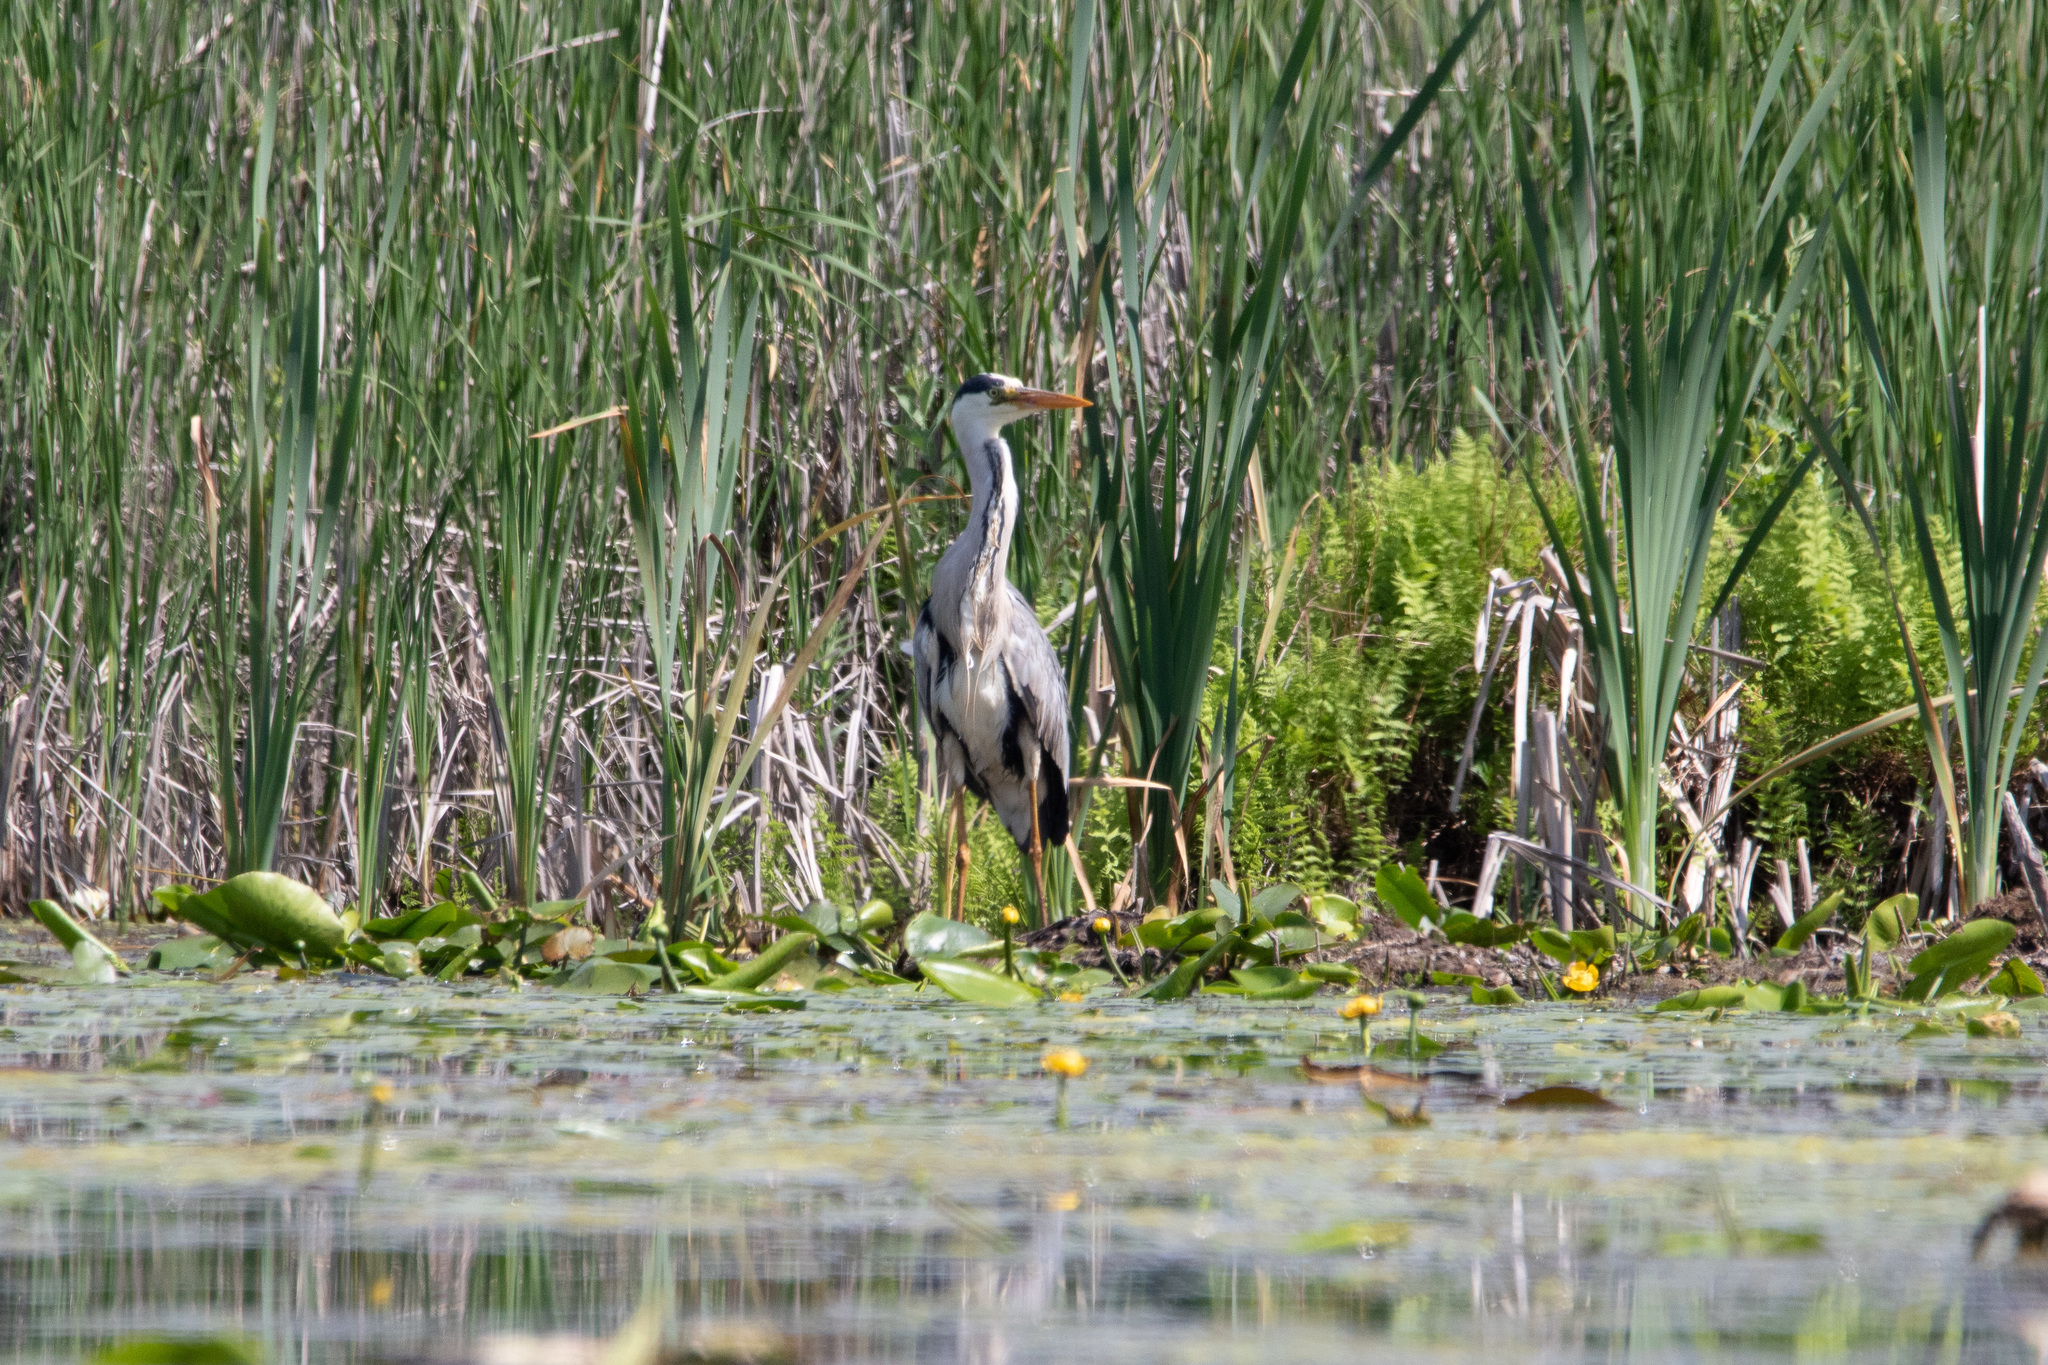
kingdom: Animalia
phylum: Chordata
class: Aves
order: Pelecaniformes
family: Ardeidae
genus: Ardea
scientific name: Ardea cinerea
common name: Grey heron
